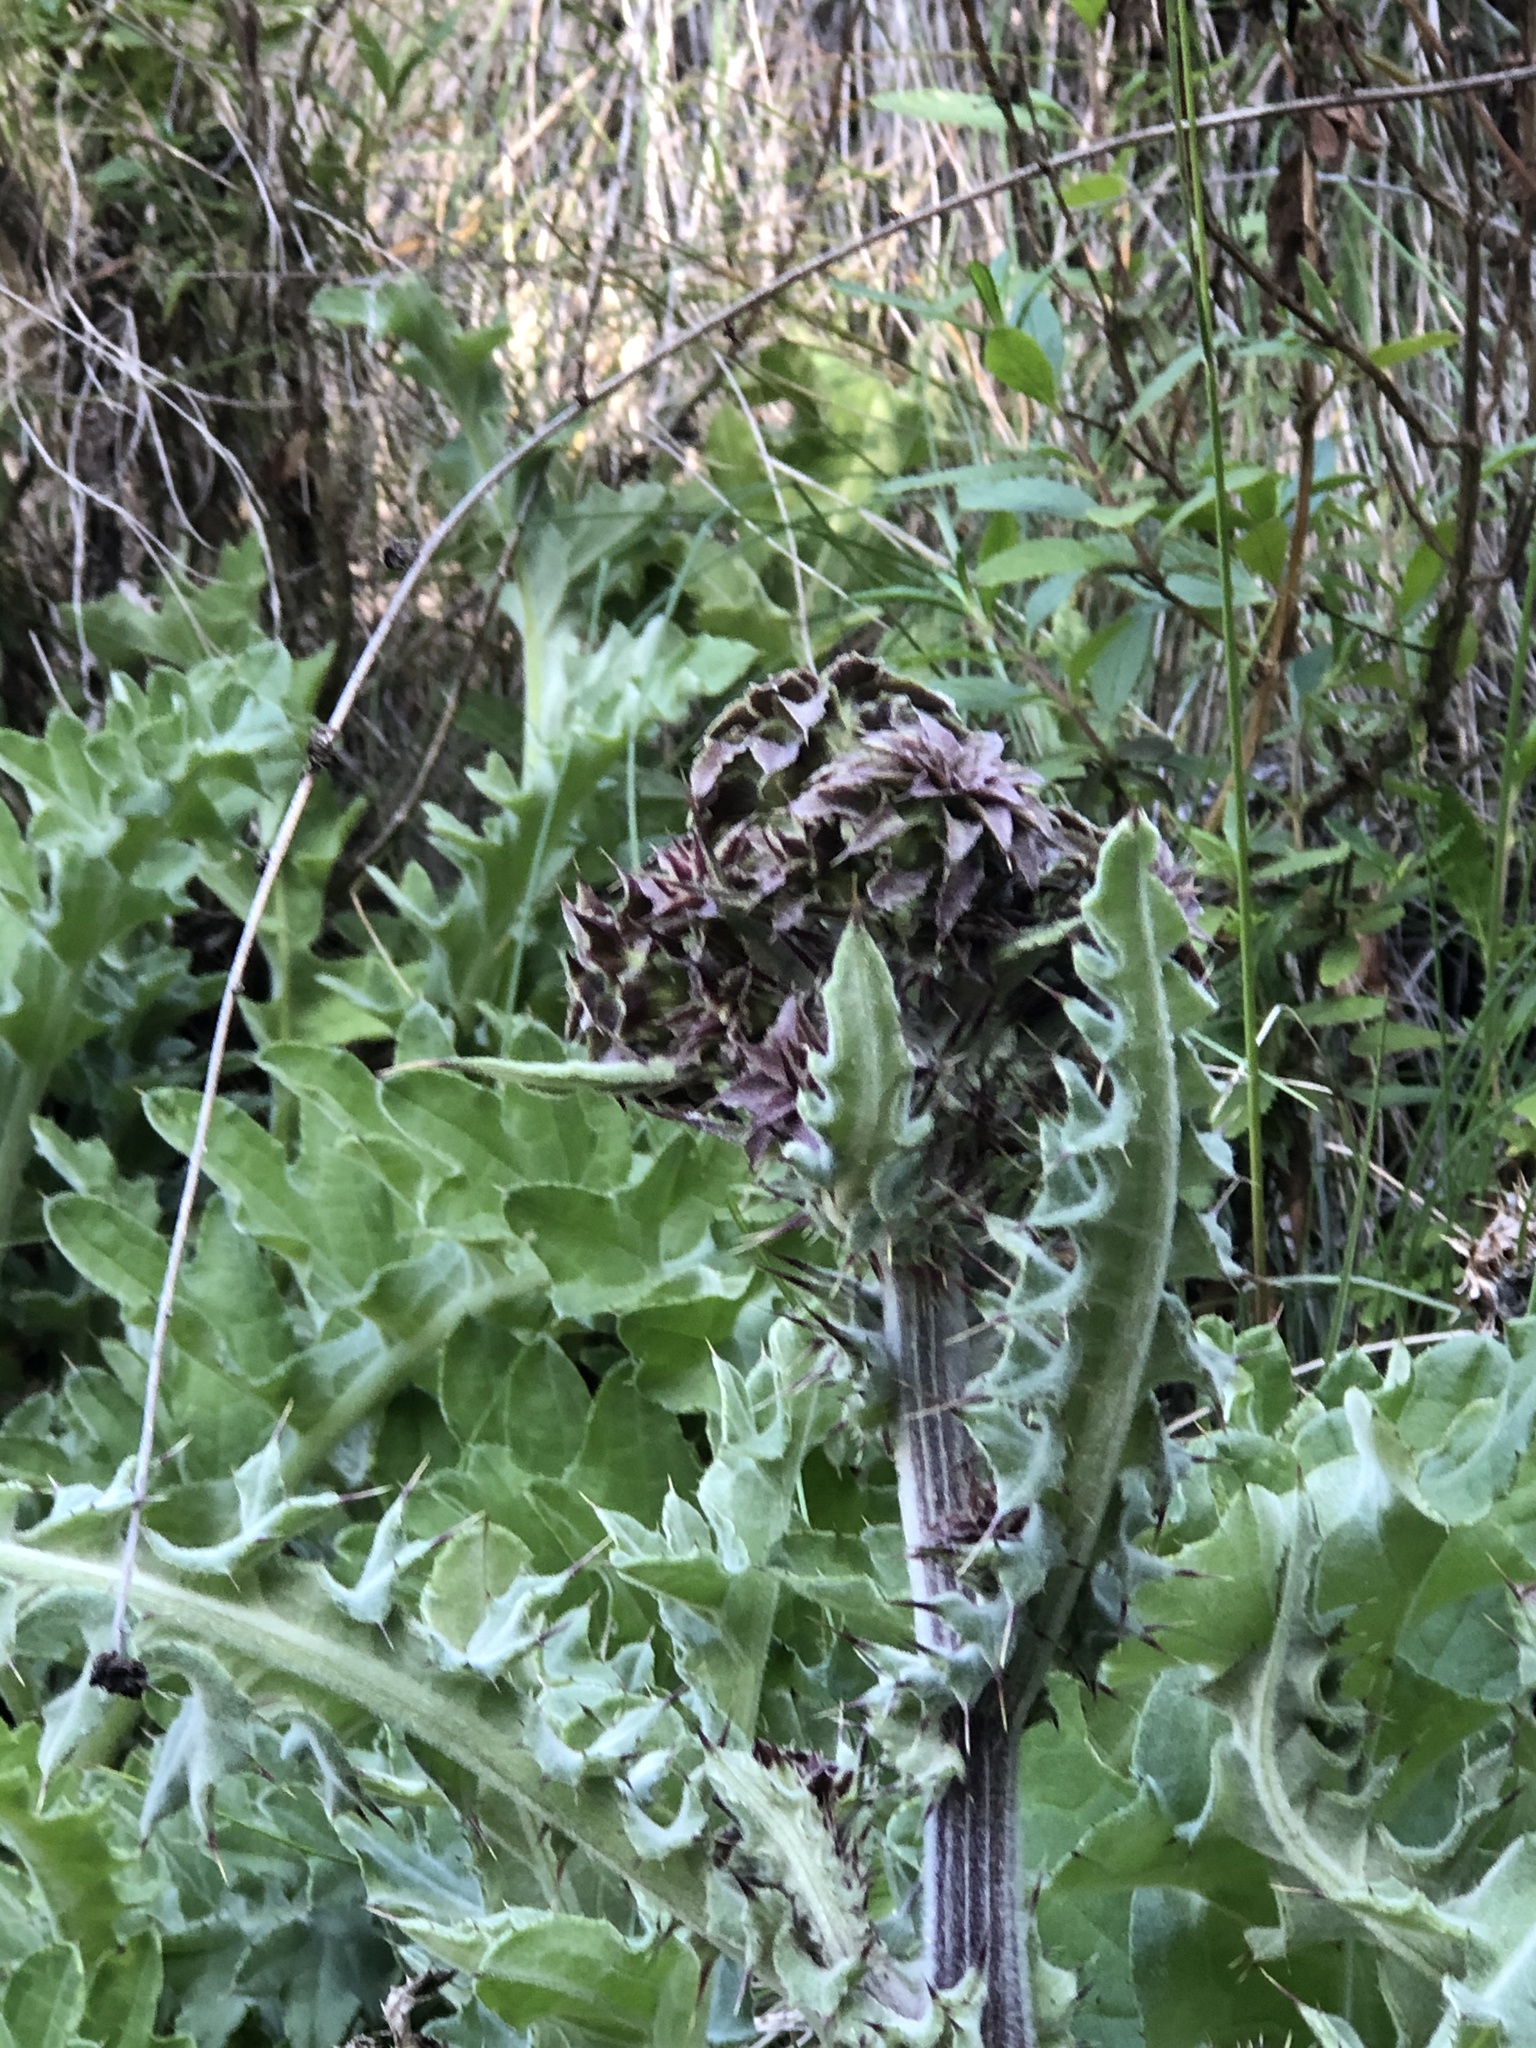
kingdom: Plantae
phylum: Tracheophyta
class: Magnoliopsida
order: Asterales
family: Asteraceae
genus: Cirsium
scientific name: Cirsium fontinale
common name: Fountain thistle
